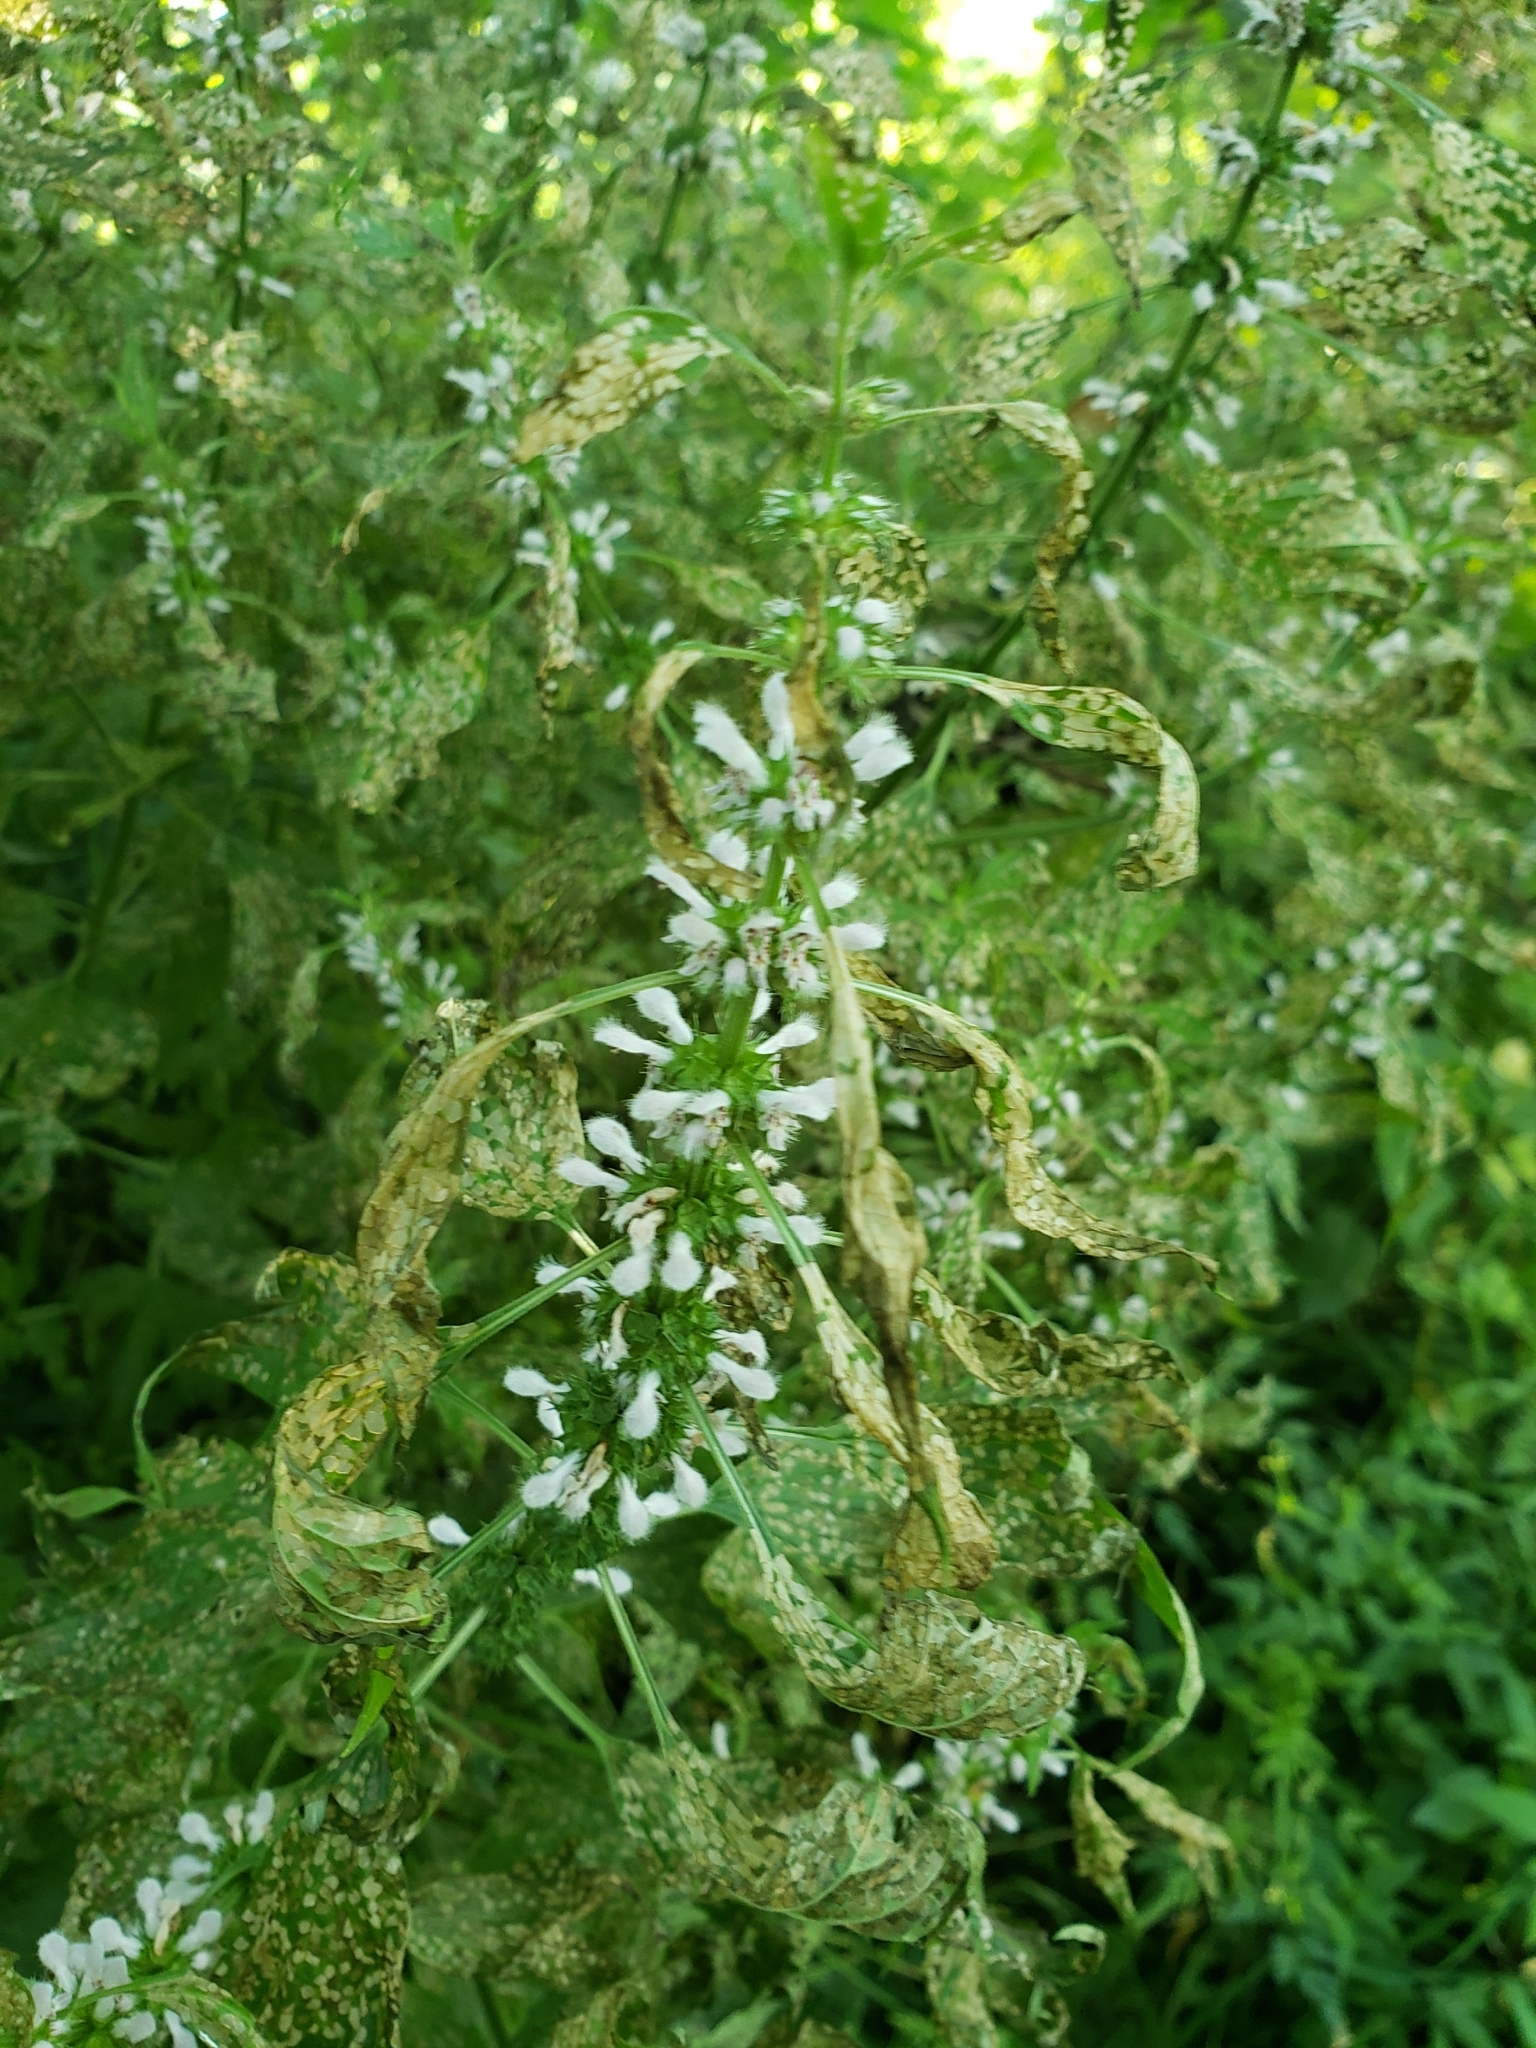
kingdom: Plantae
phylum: Tracheophyta
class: Magnoliopsida
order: Lamiales
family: Lamiaceae
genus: Leonurus
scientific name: Leonurus cardiaca
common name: Motherwort
